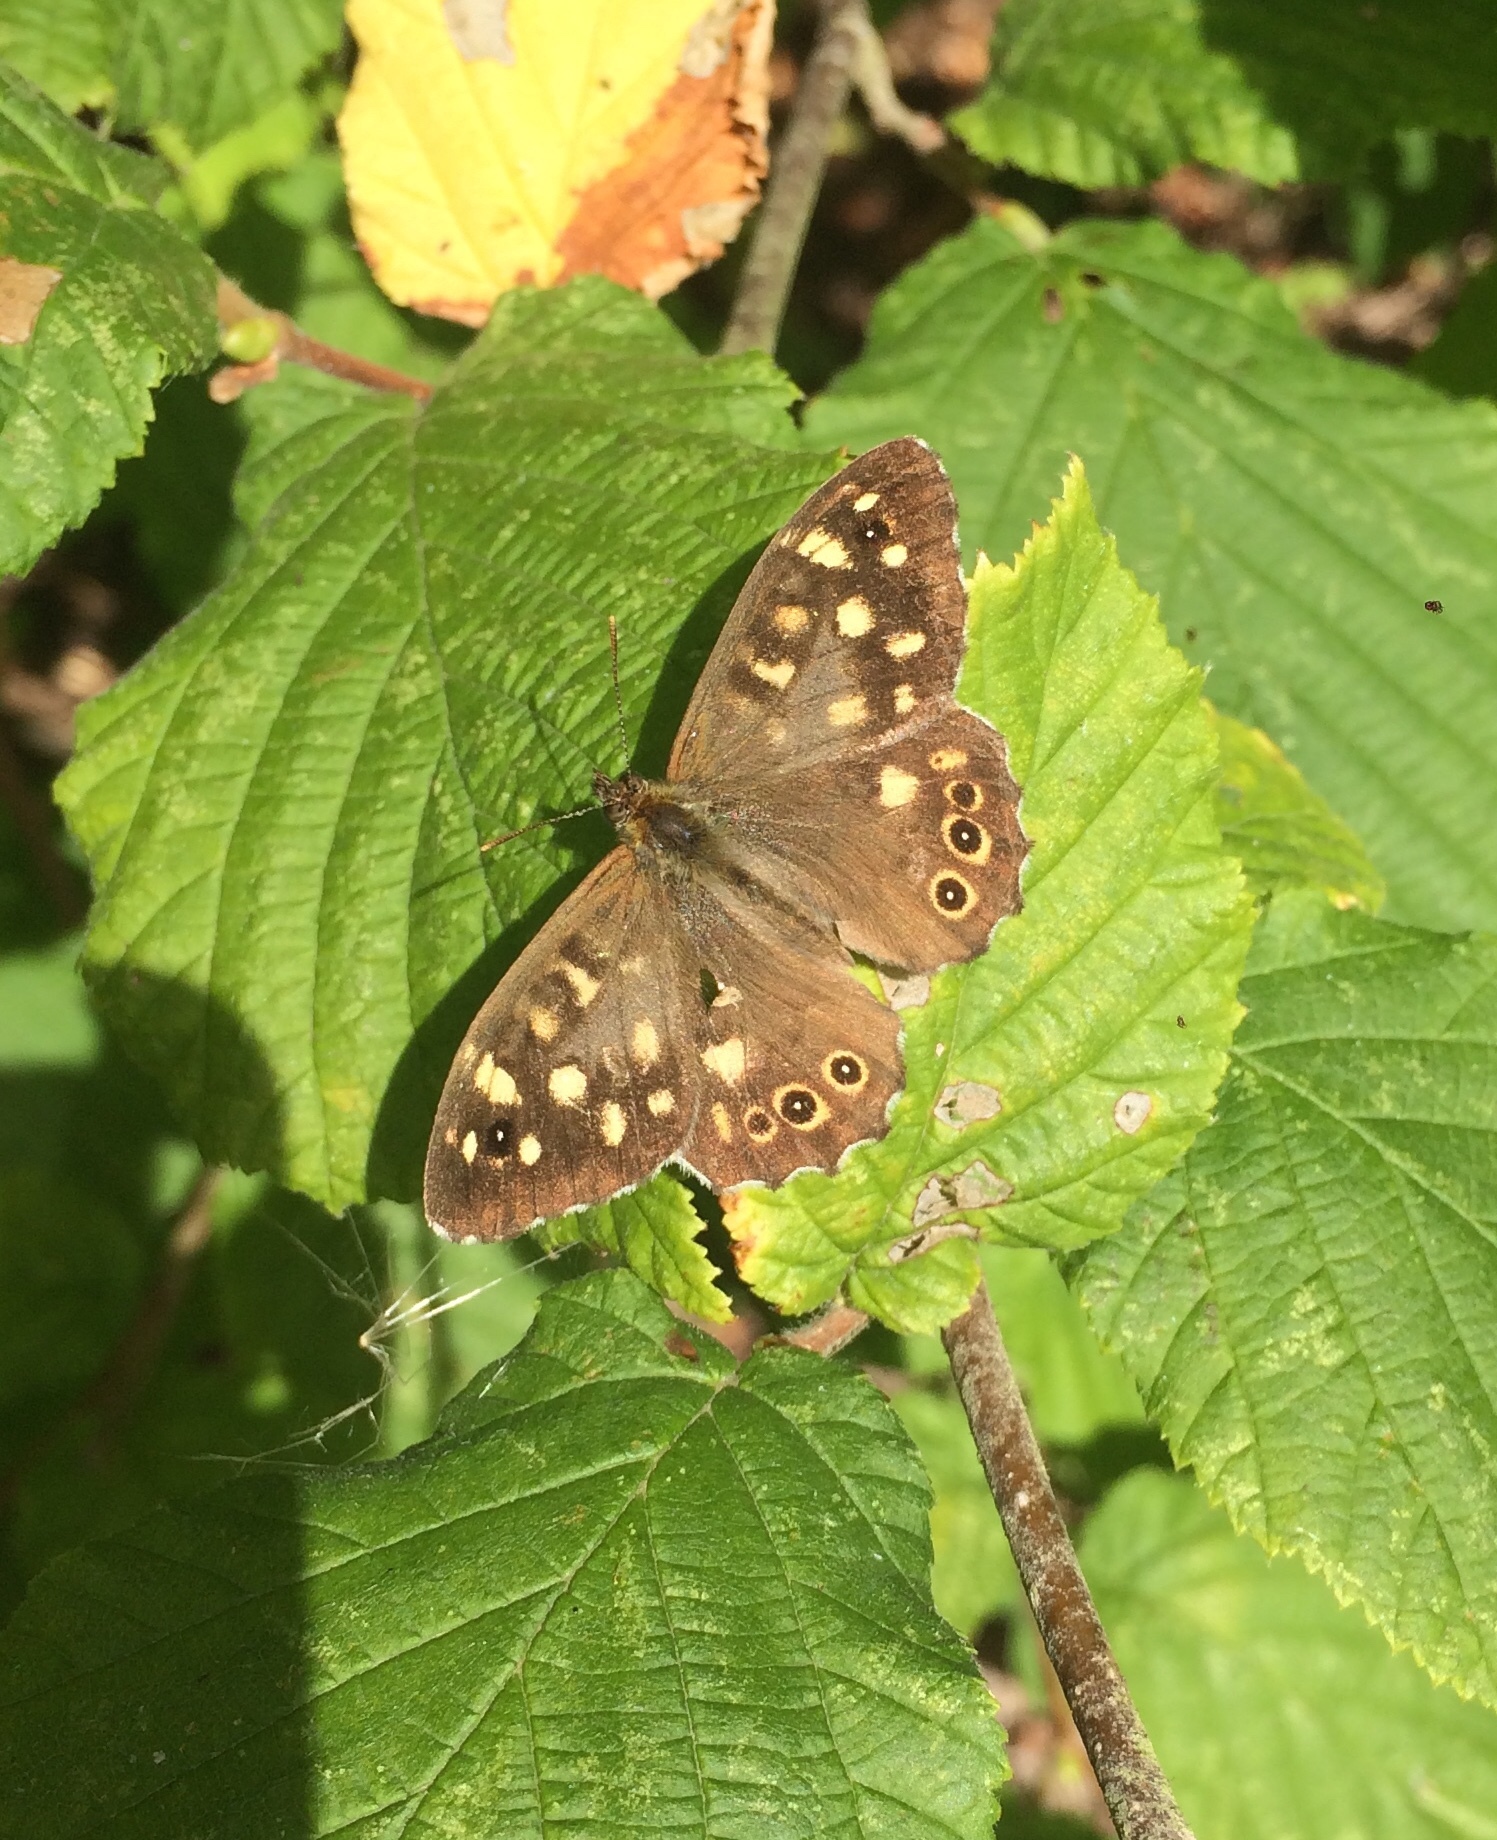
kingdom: Animalia
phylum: Arthropoda
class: Insecta
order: Lepidoptera
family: Nymphalidae
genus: Pararge
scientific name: Pararge aegeria
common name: Speckled wood
